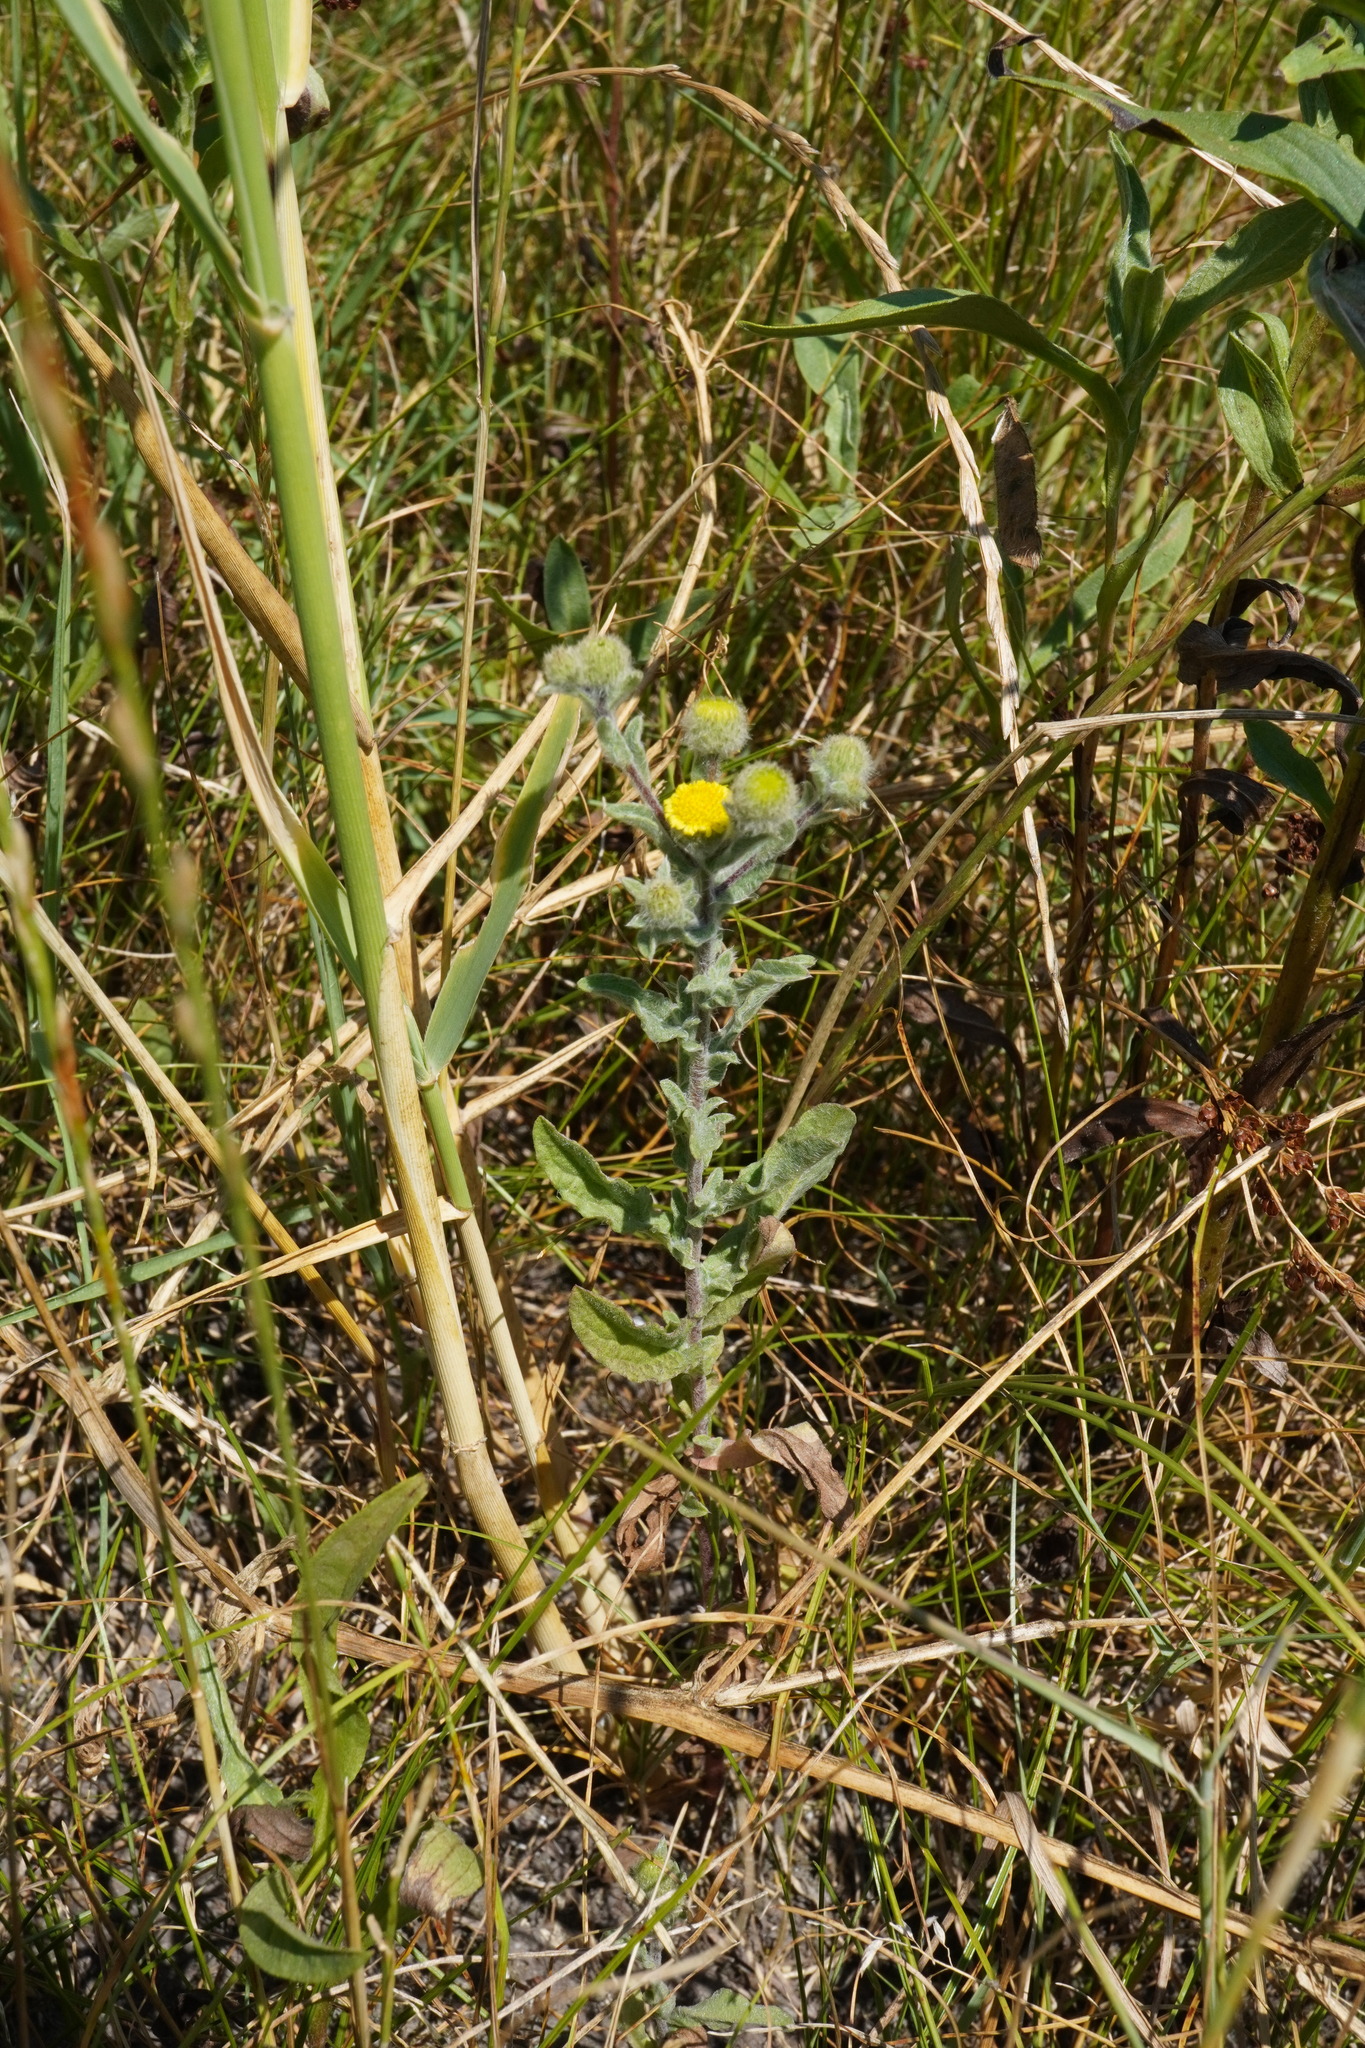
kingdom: Plantae
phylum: Tracheophyta
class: Magnoliopsida
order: Asterales
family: Asteraceae
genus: Pulicaria
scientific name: Pulicaria vulgaris
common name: Small fleabane
